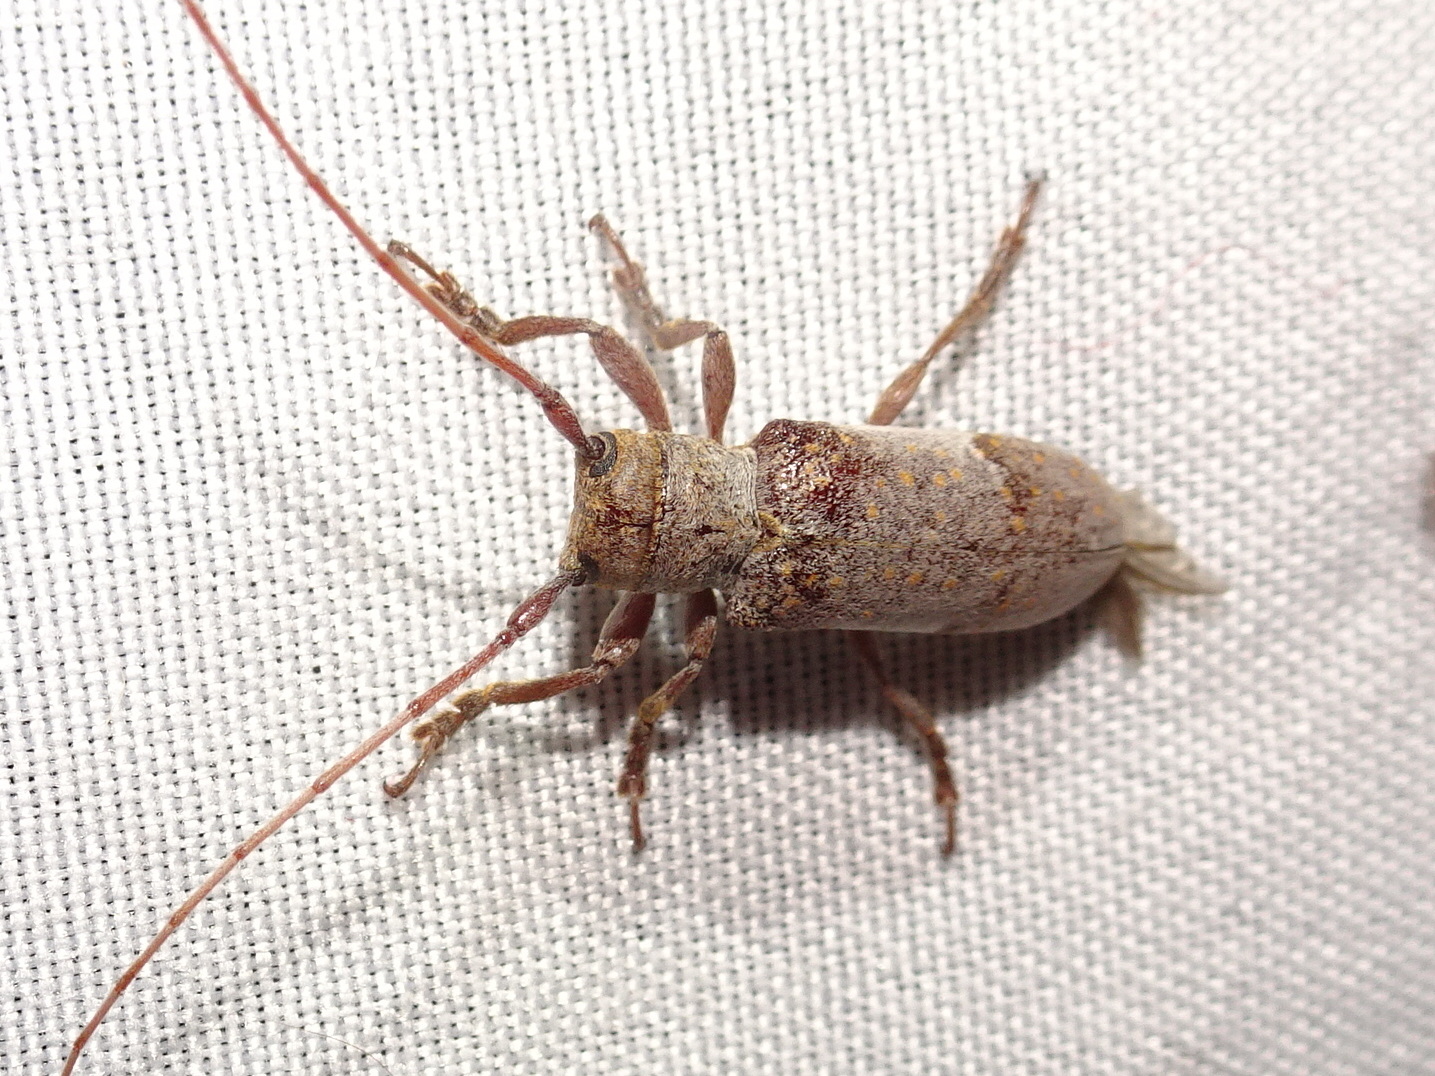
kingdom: Animalia
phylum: Arthropoda
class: Insecta
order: Coleoptera
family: Cerambycidae
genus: Oncideres
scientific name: Oncideres cingulata
